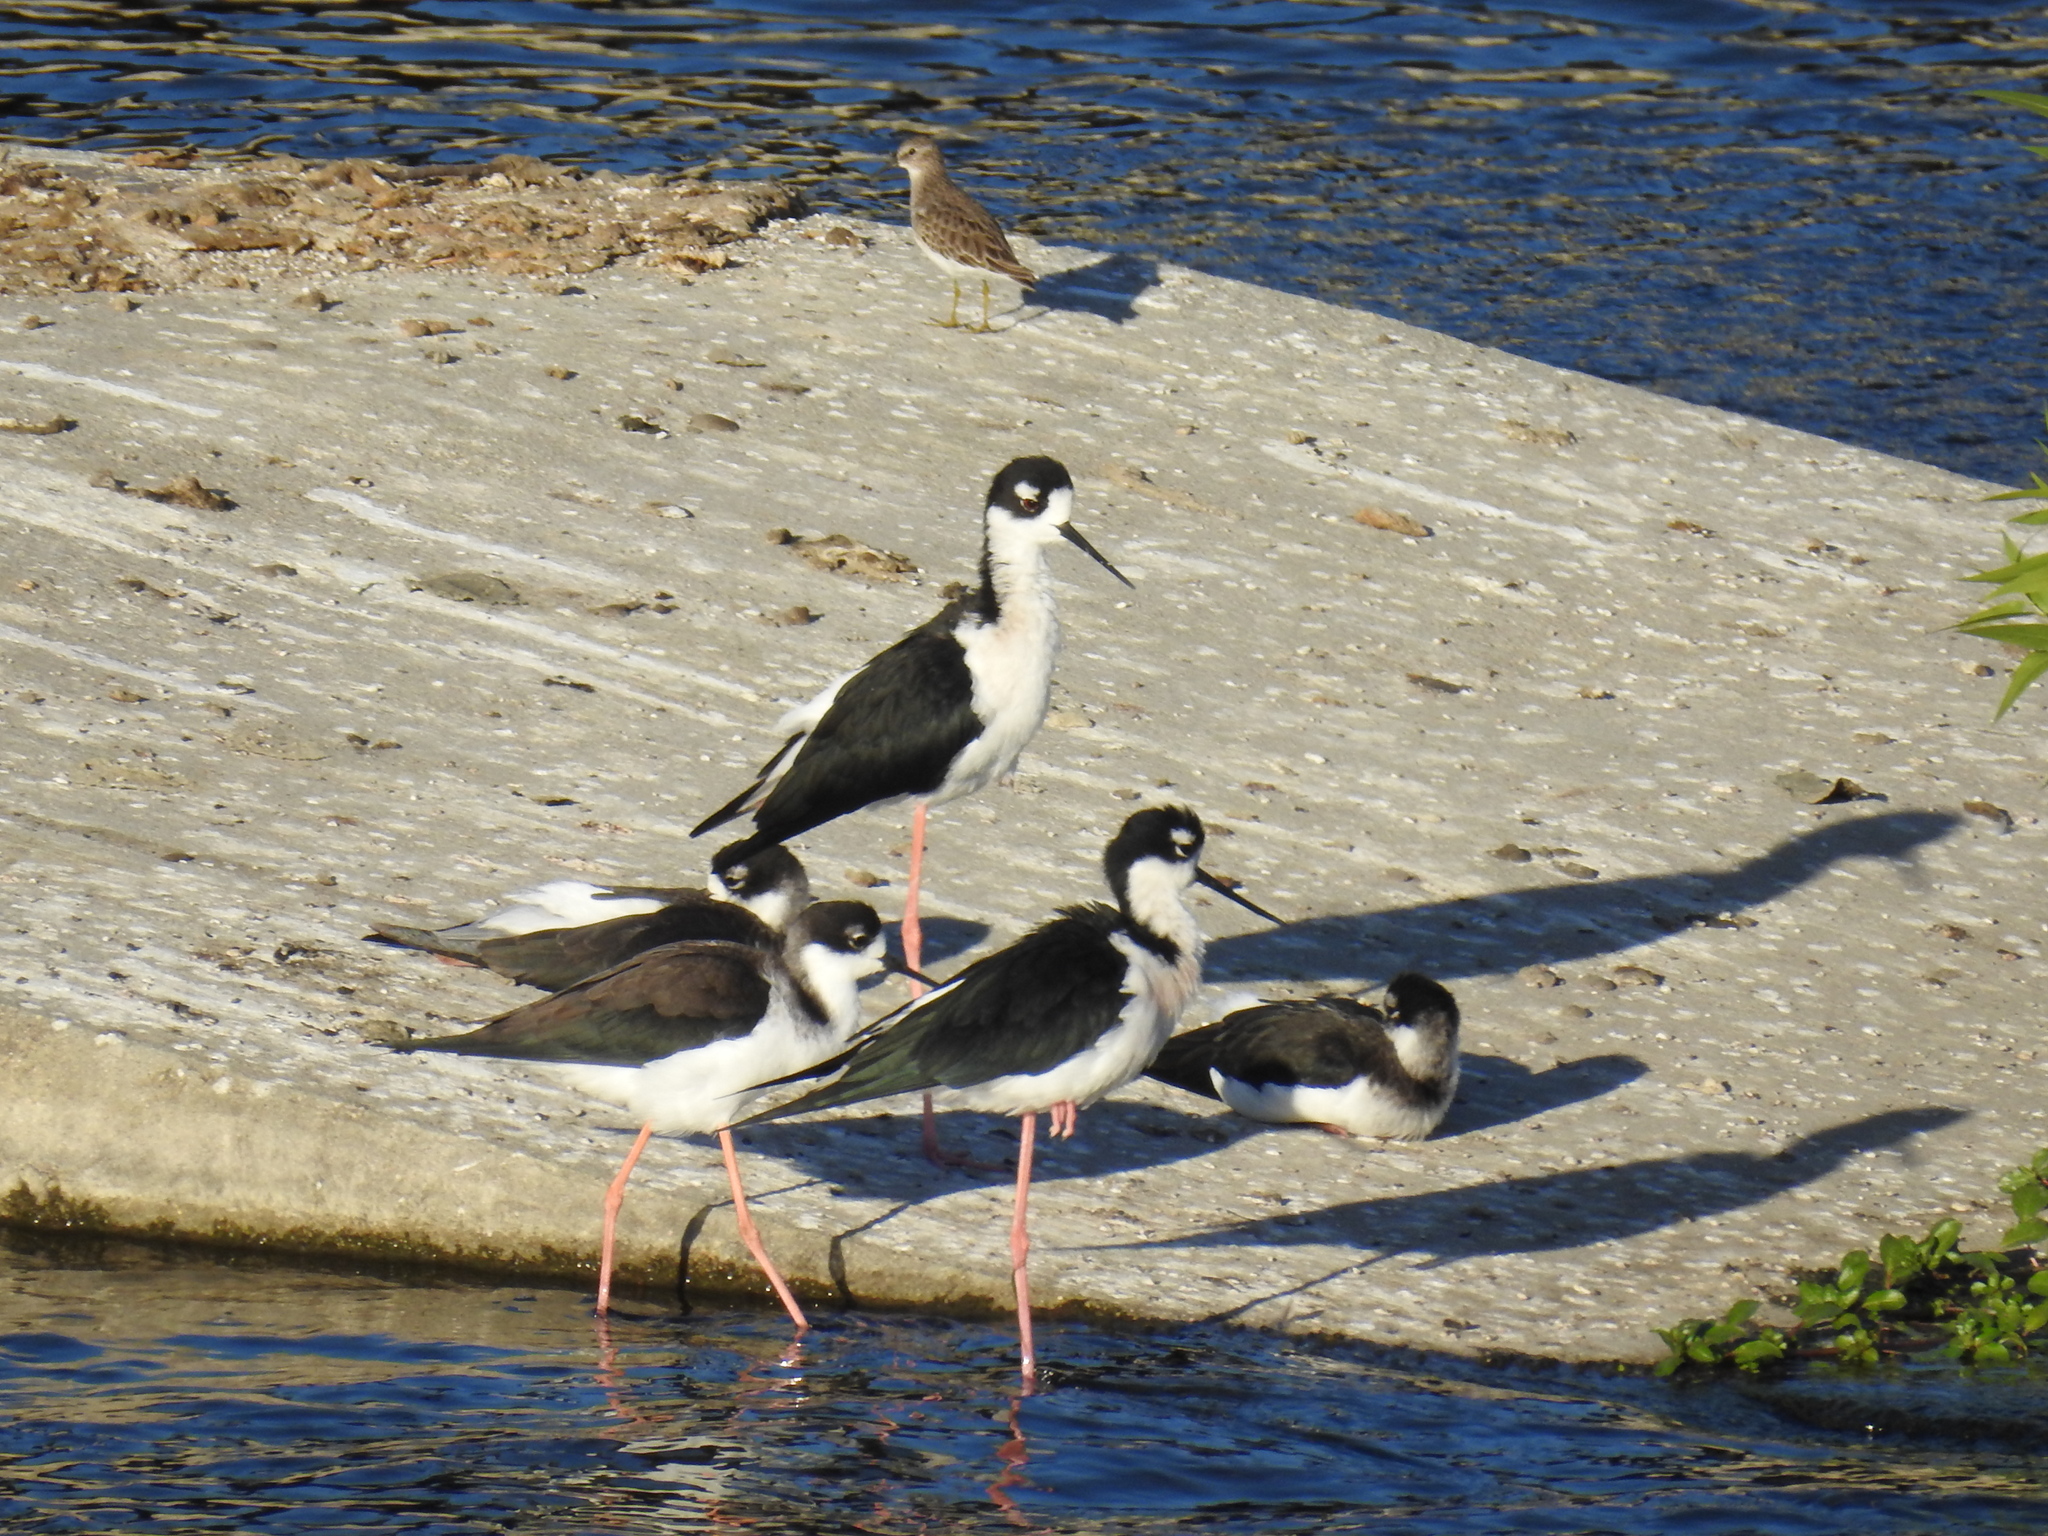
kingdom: Animalia
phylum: Chordata
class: Aves
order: Charadriiformes
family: Recurvirostridae
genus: Himantopus
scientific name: Himantopus mexicanus
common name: Black-necked stilt
